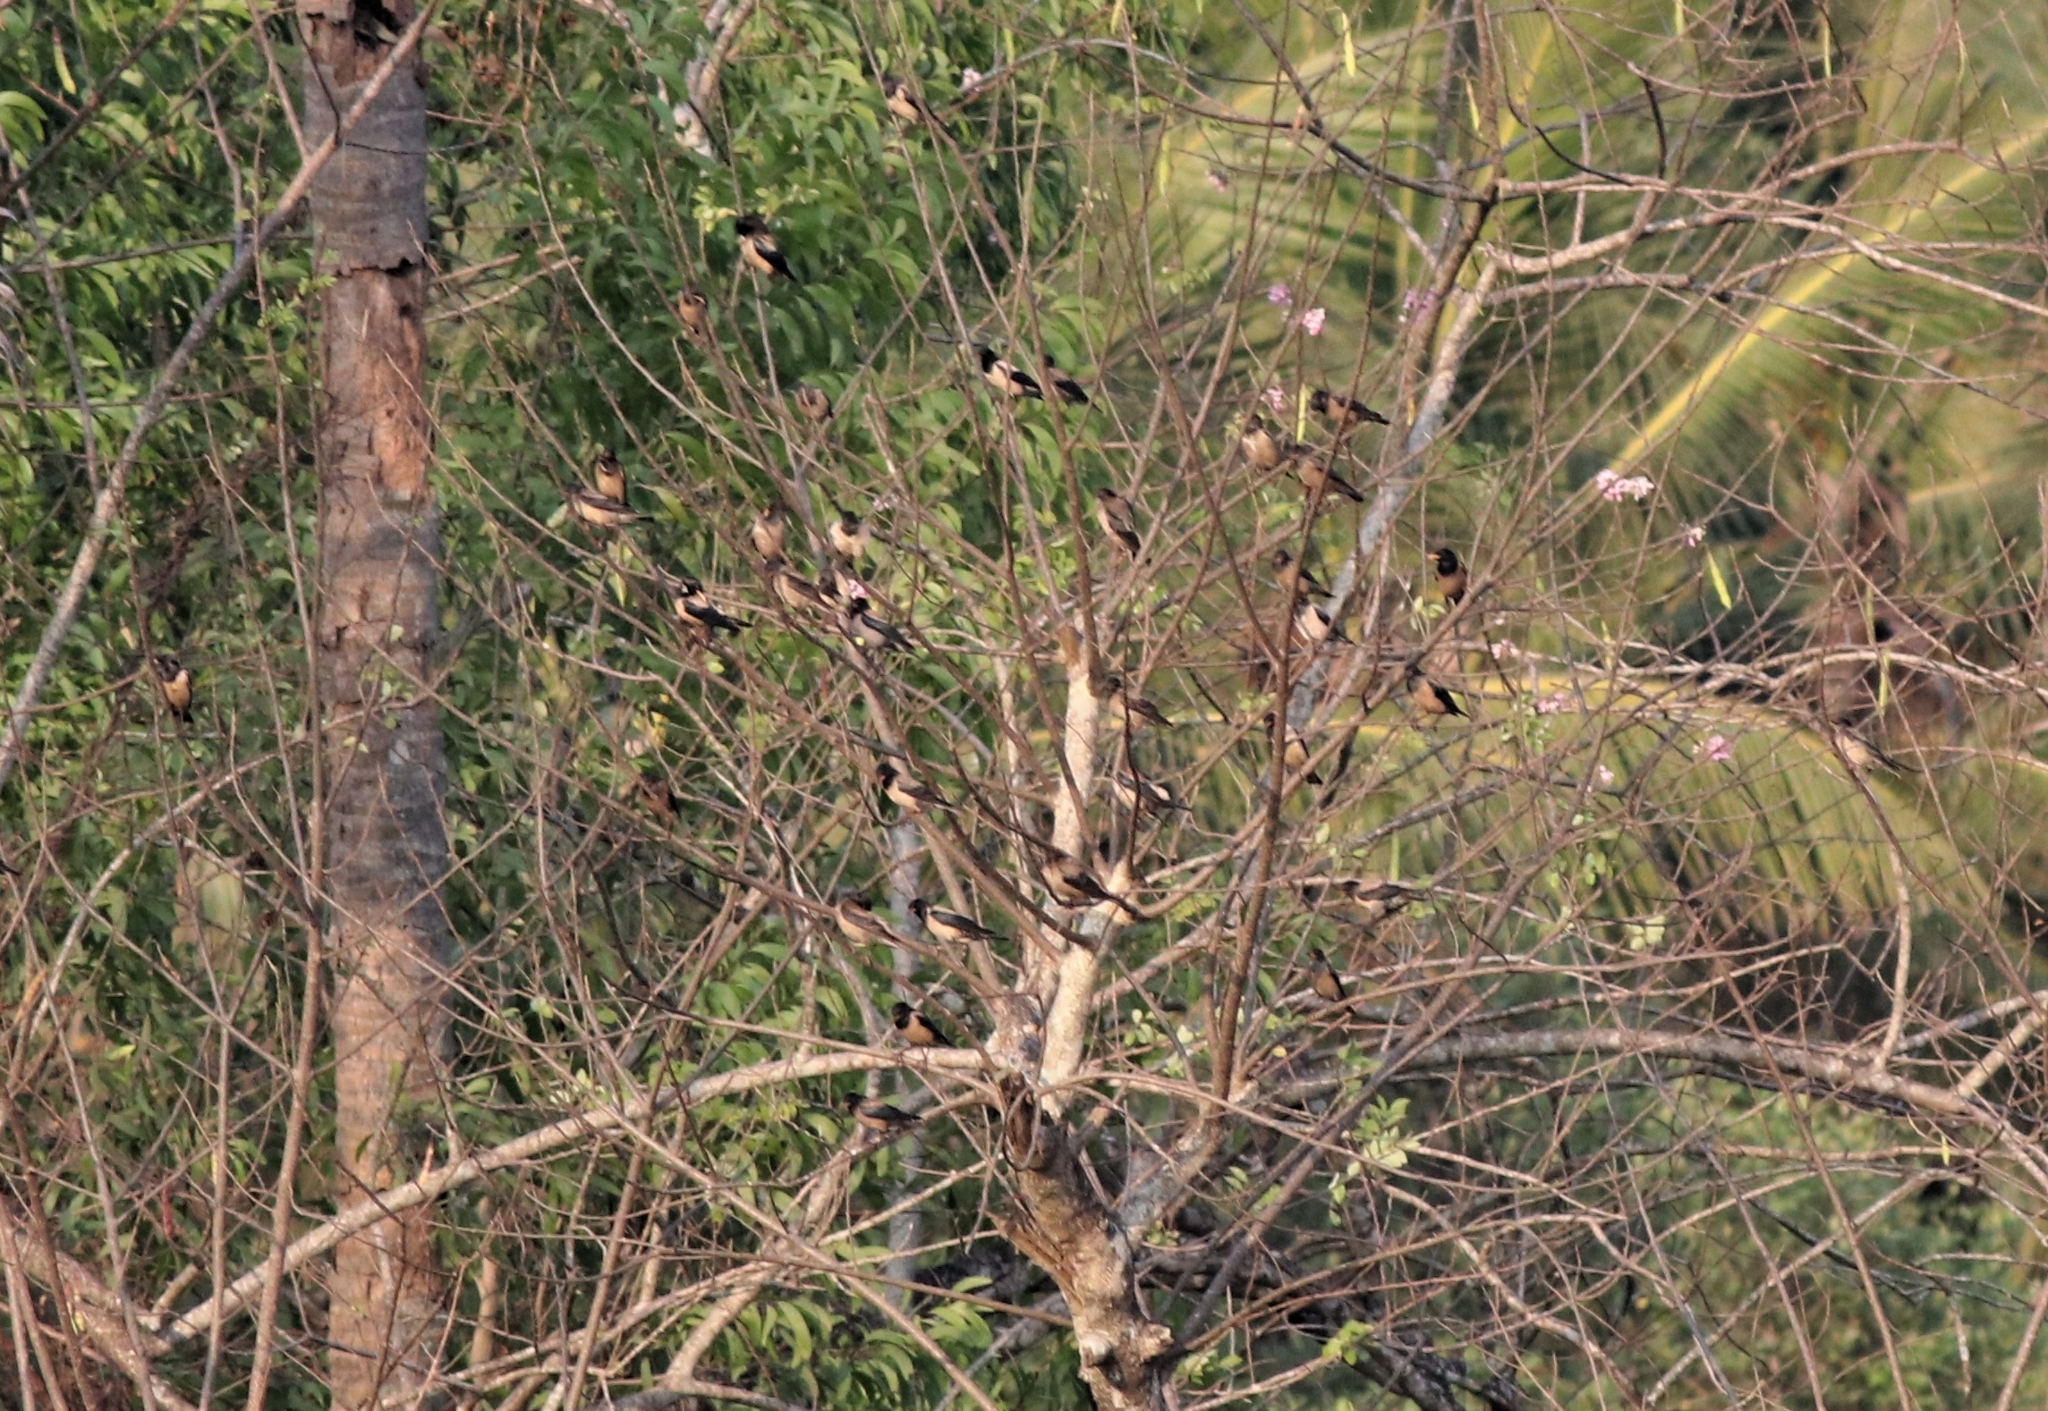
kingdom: Animalia
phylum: Chordata
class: Aves
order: Passeriformes
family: Sturnidae
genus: Pastor
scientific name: Pastor roseus
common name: Rosy starling
